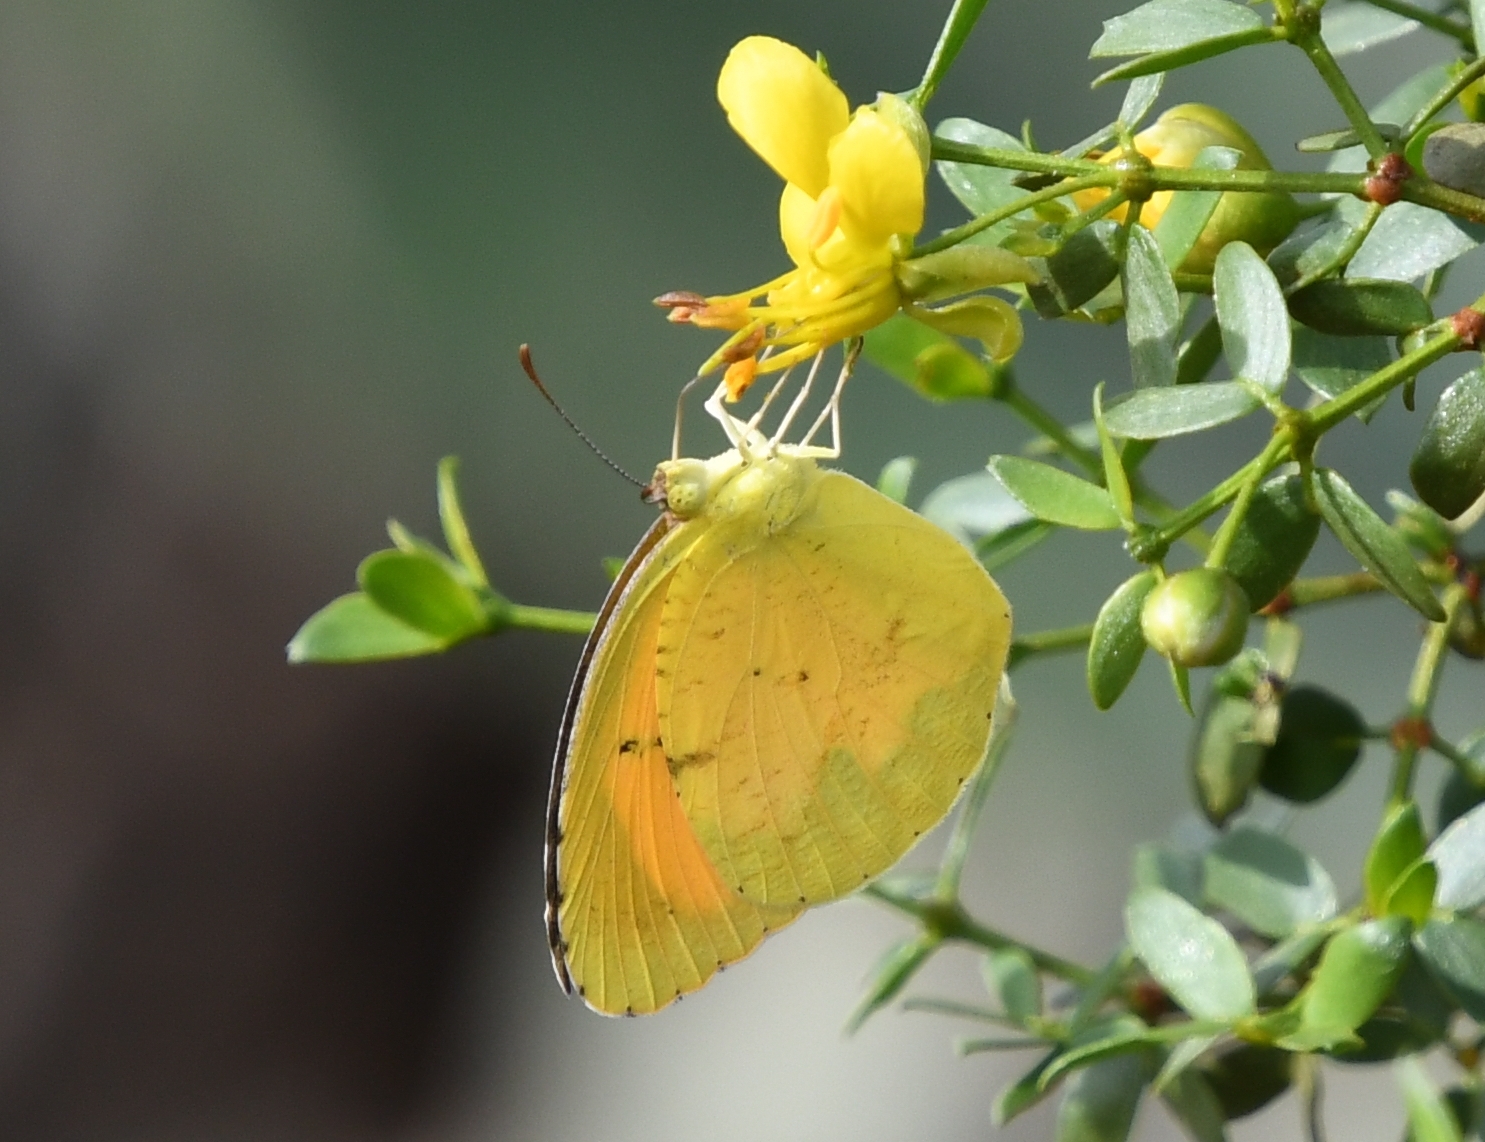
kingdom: Animalia
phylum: Arthropoda
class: Insecta
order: Lepidoptera
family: Pieridae
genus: Abaeis
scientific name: Abaeis nicippe
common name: Sleepy orange
